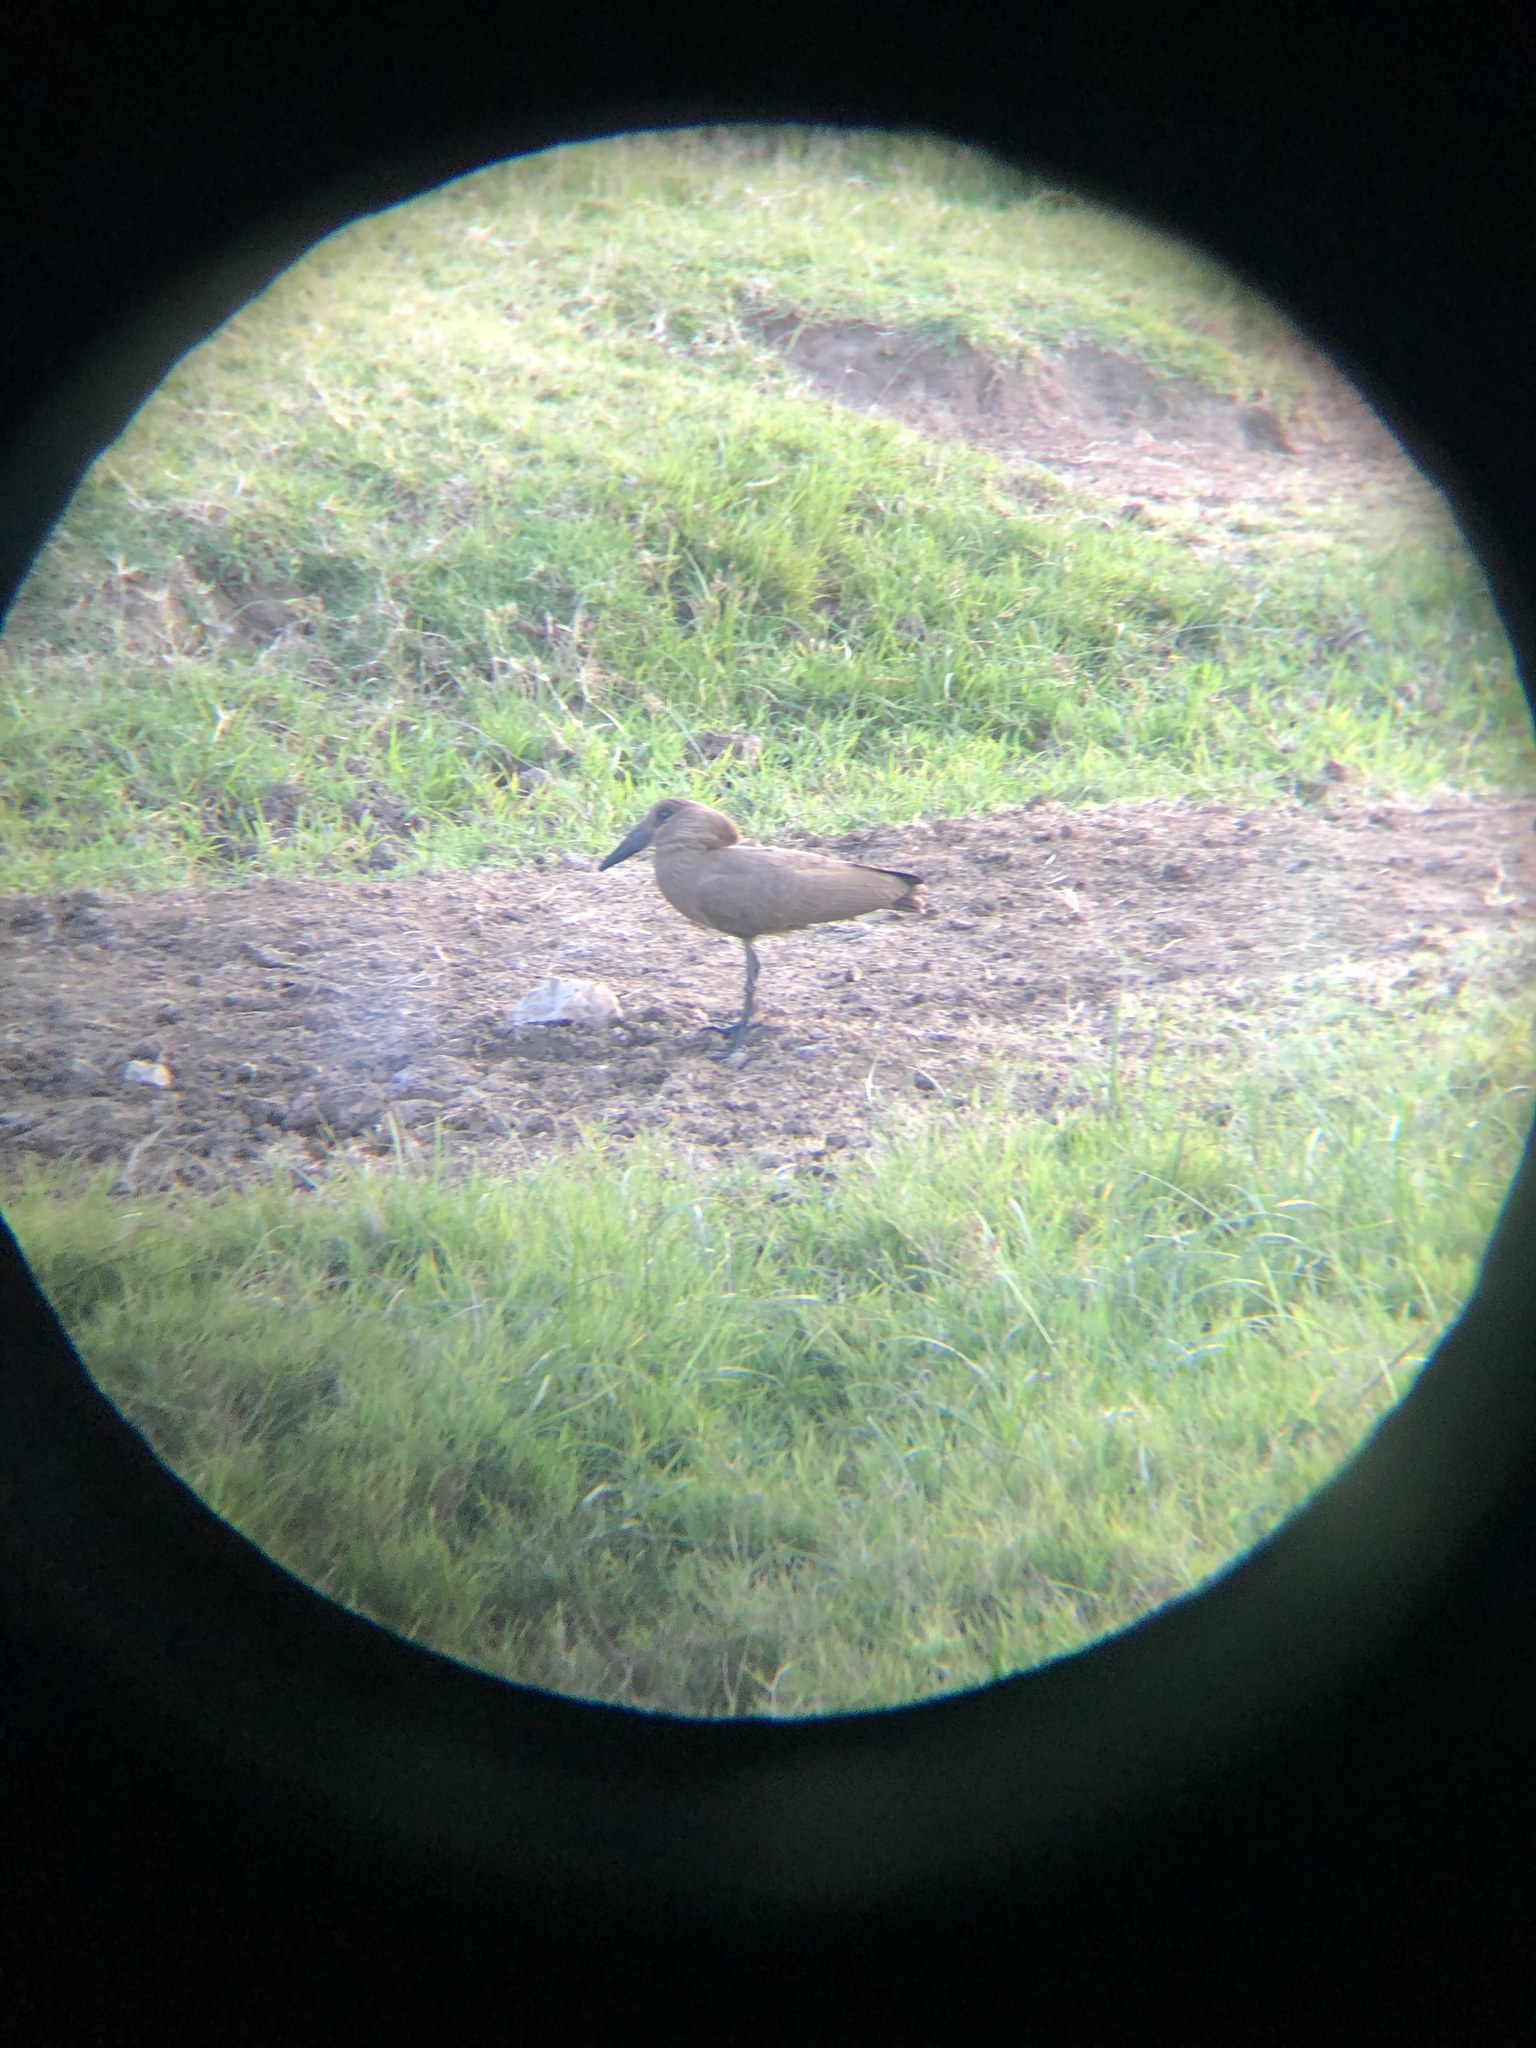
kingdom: Animalia
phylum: Chordata
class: Aves
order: Pelecaniformes
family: Scopidae
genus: Scopus
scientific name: Scopus umbretta
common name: Hamerkop
